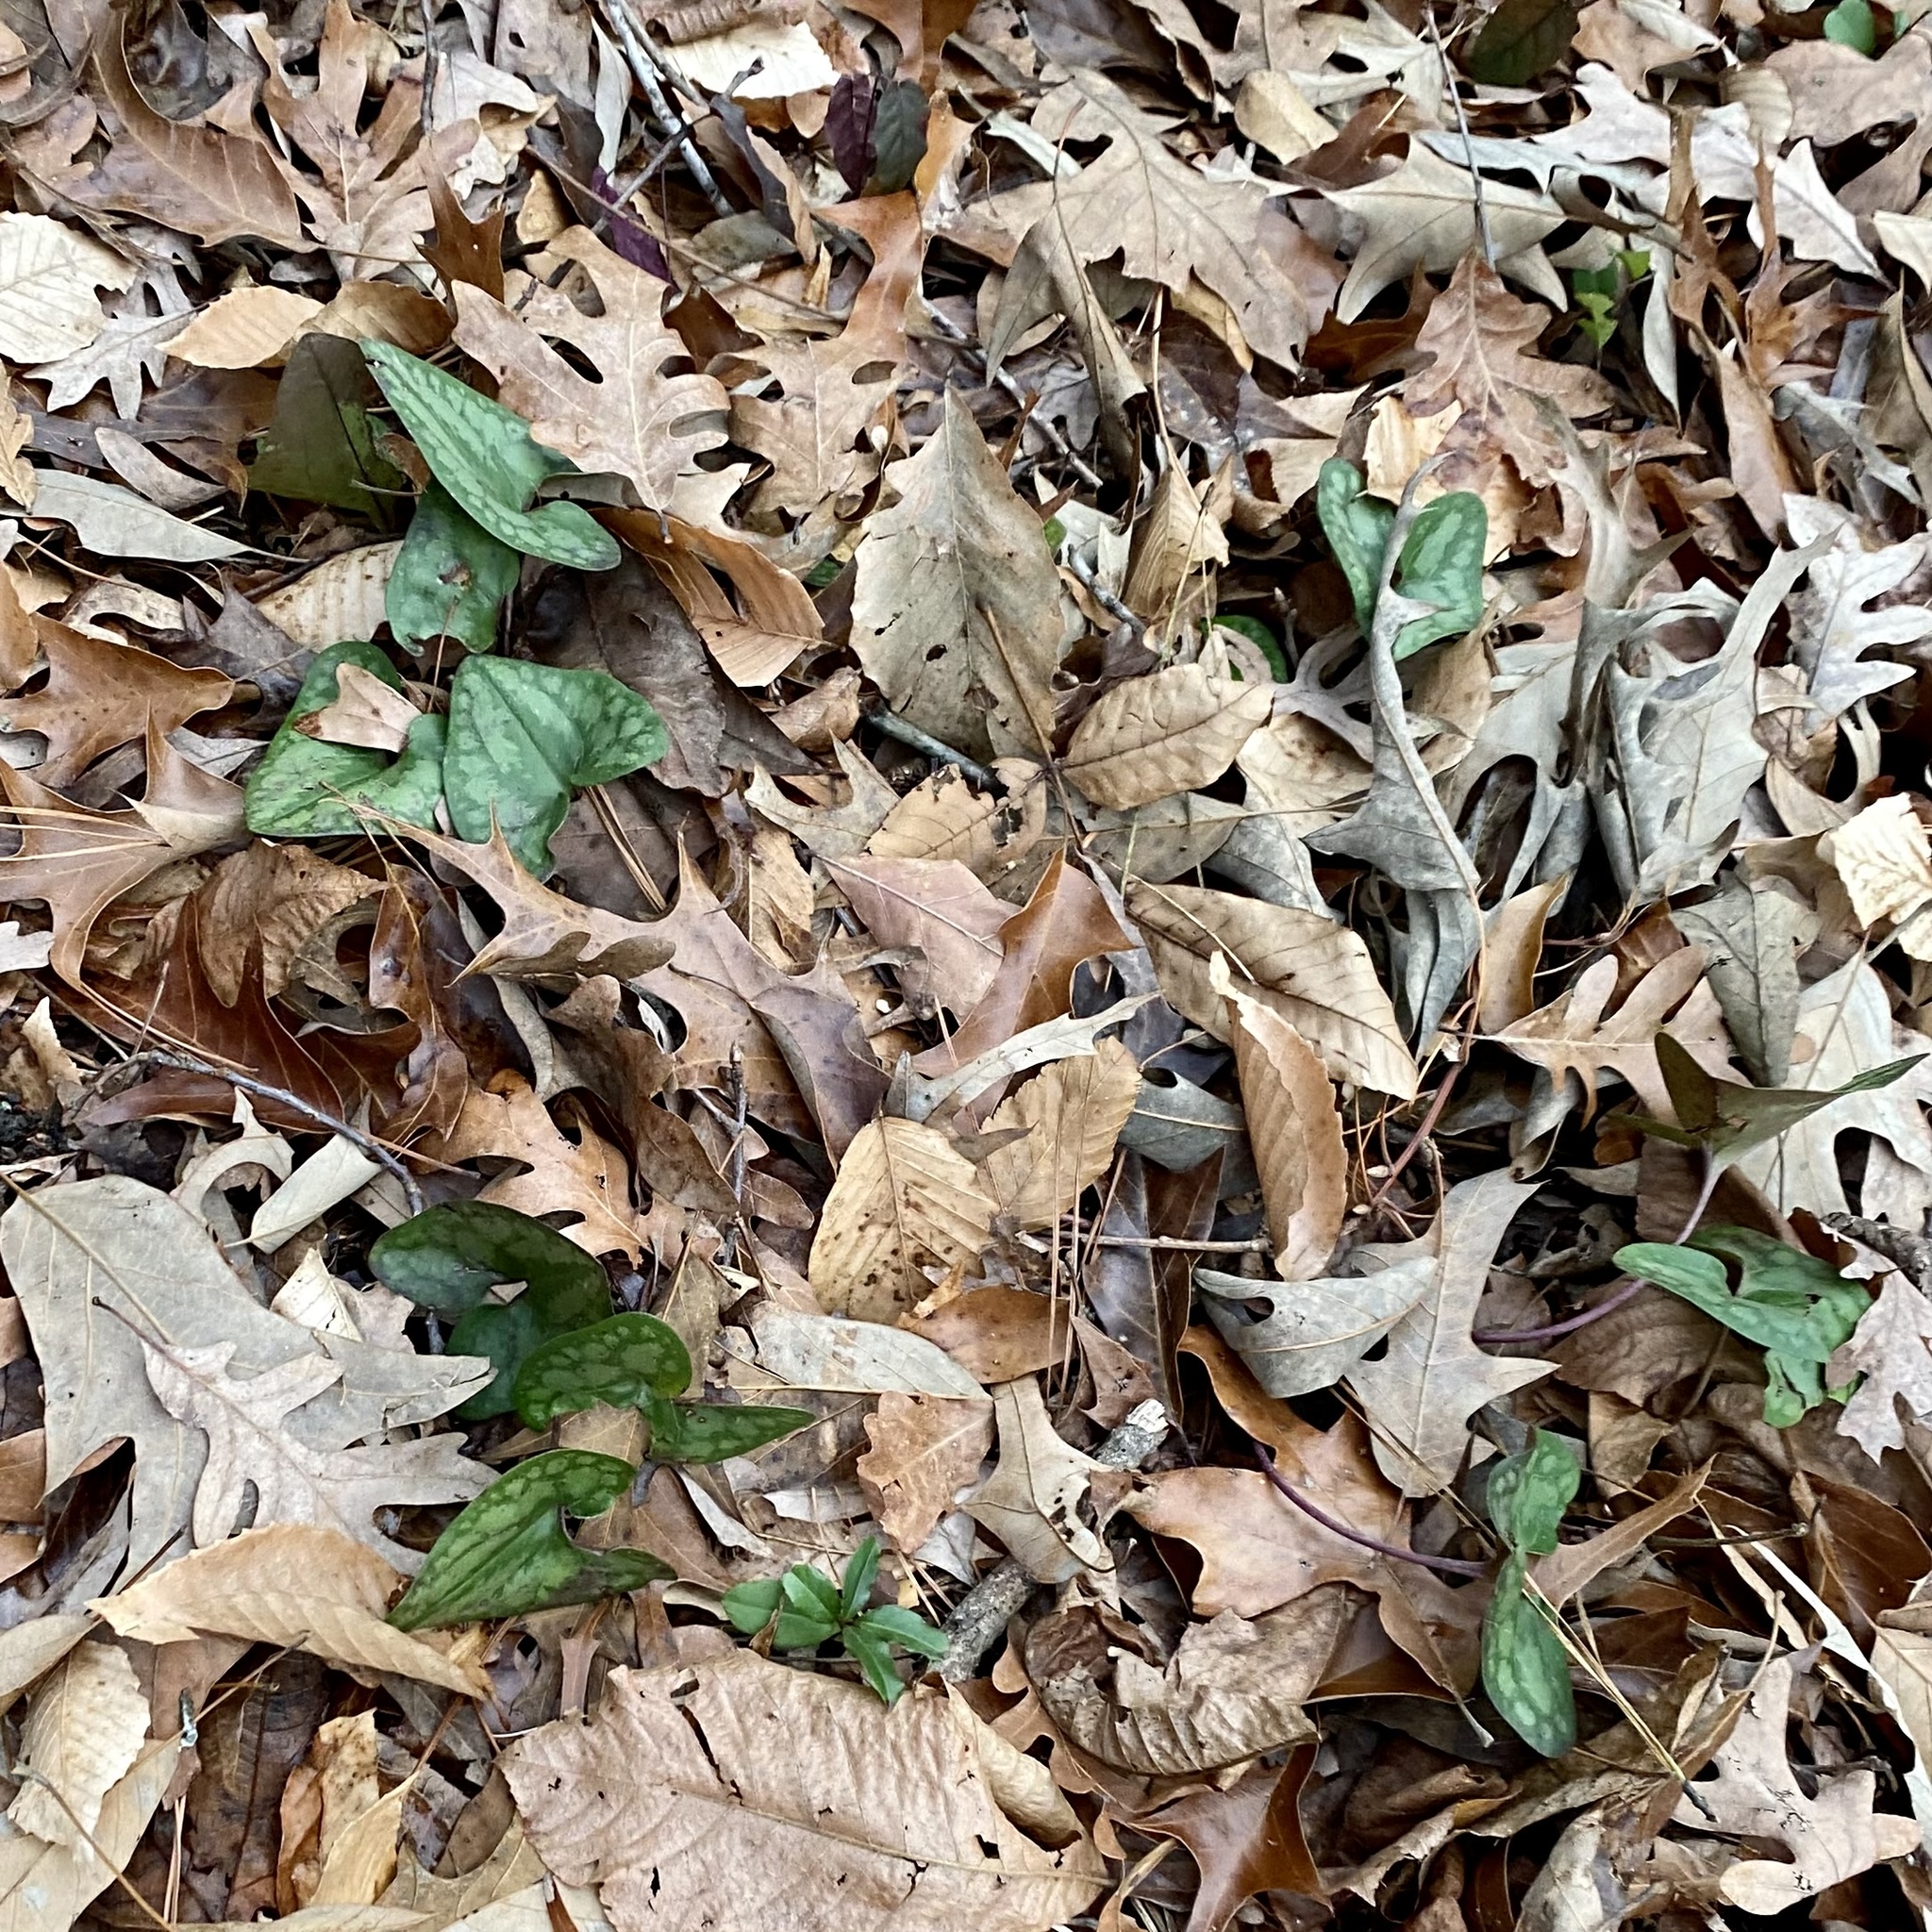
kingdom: Plantae
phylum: Tracheophyta
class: Magnoliopsida
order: Piperales
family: Aristolochiaceae
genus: Hexastylis
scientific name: Hexastylis arifolia
